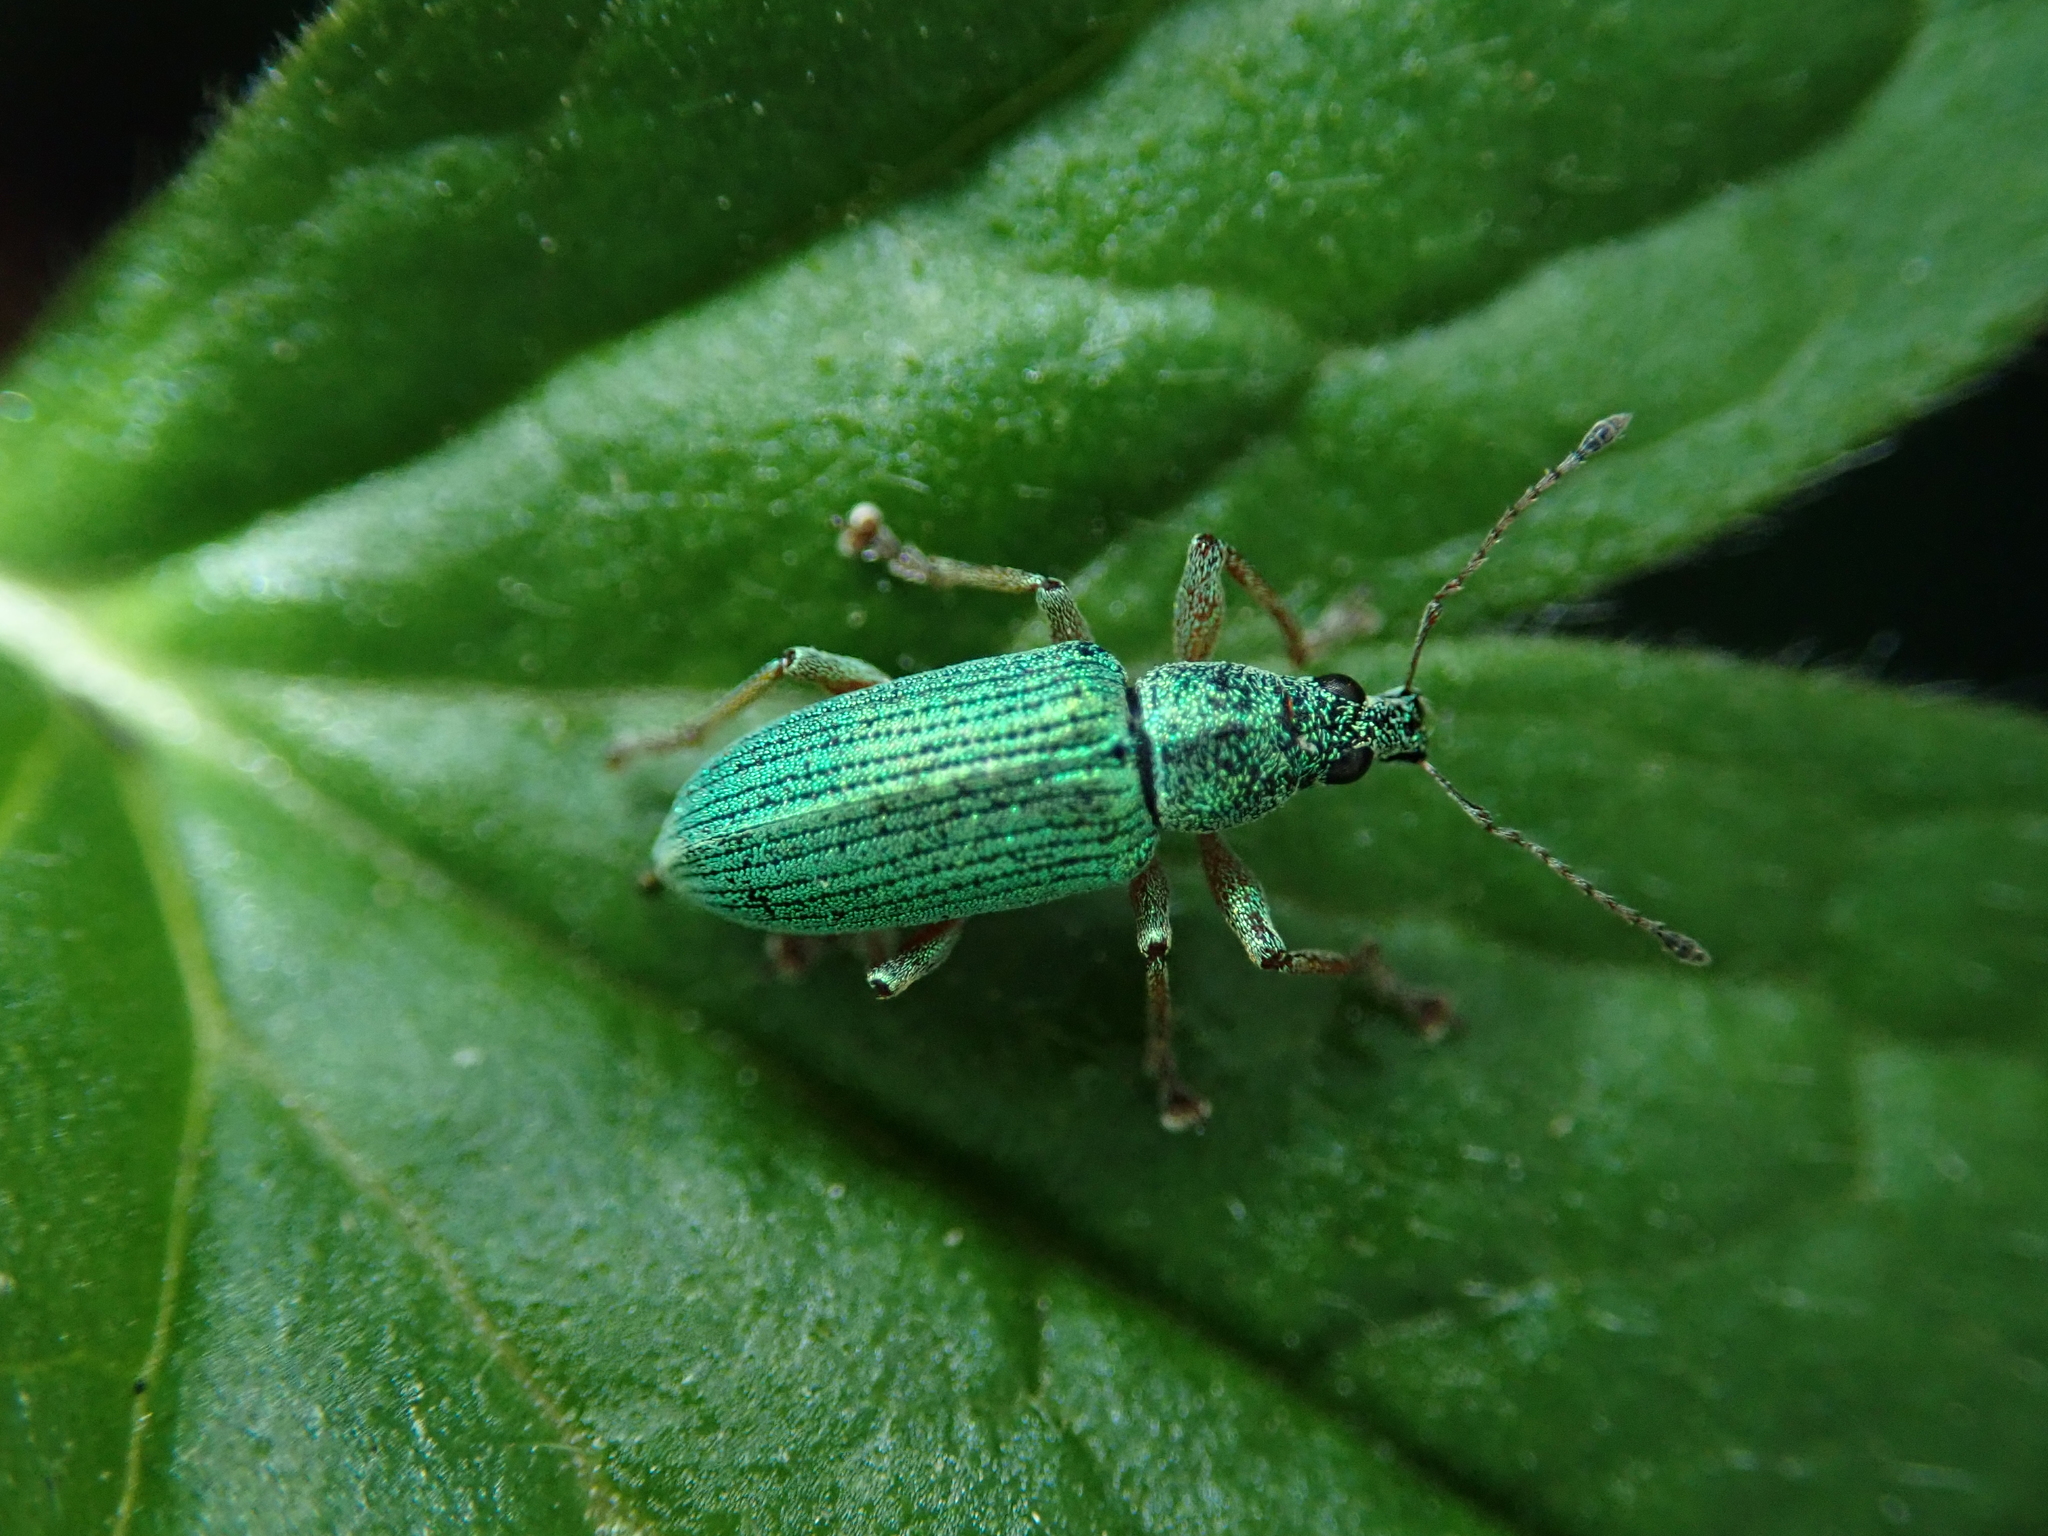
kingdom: Animalia
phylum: Arthropoda
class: Insecta
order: Coleoptera
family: Curculionidae
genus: Polydrusus
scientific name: Polydrusus formosus
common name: Weevil
